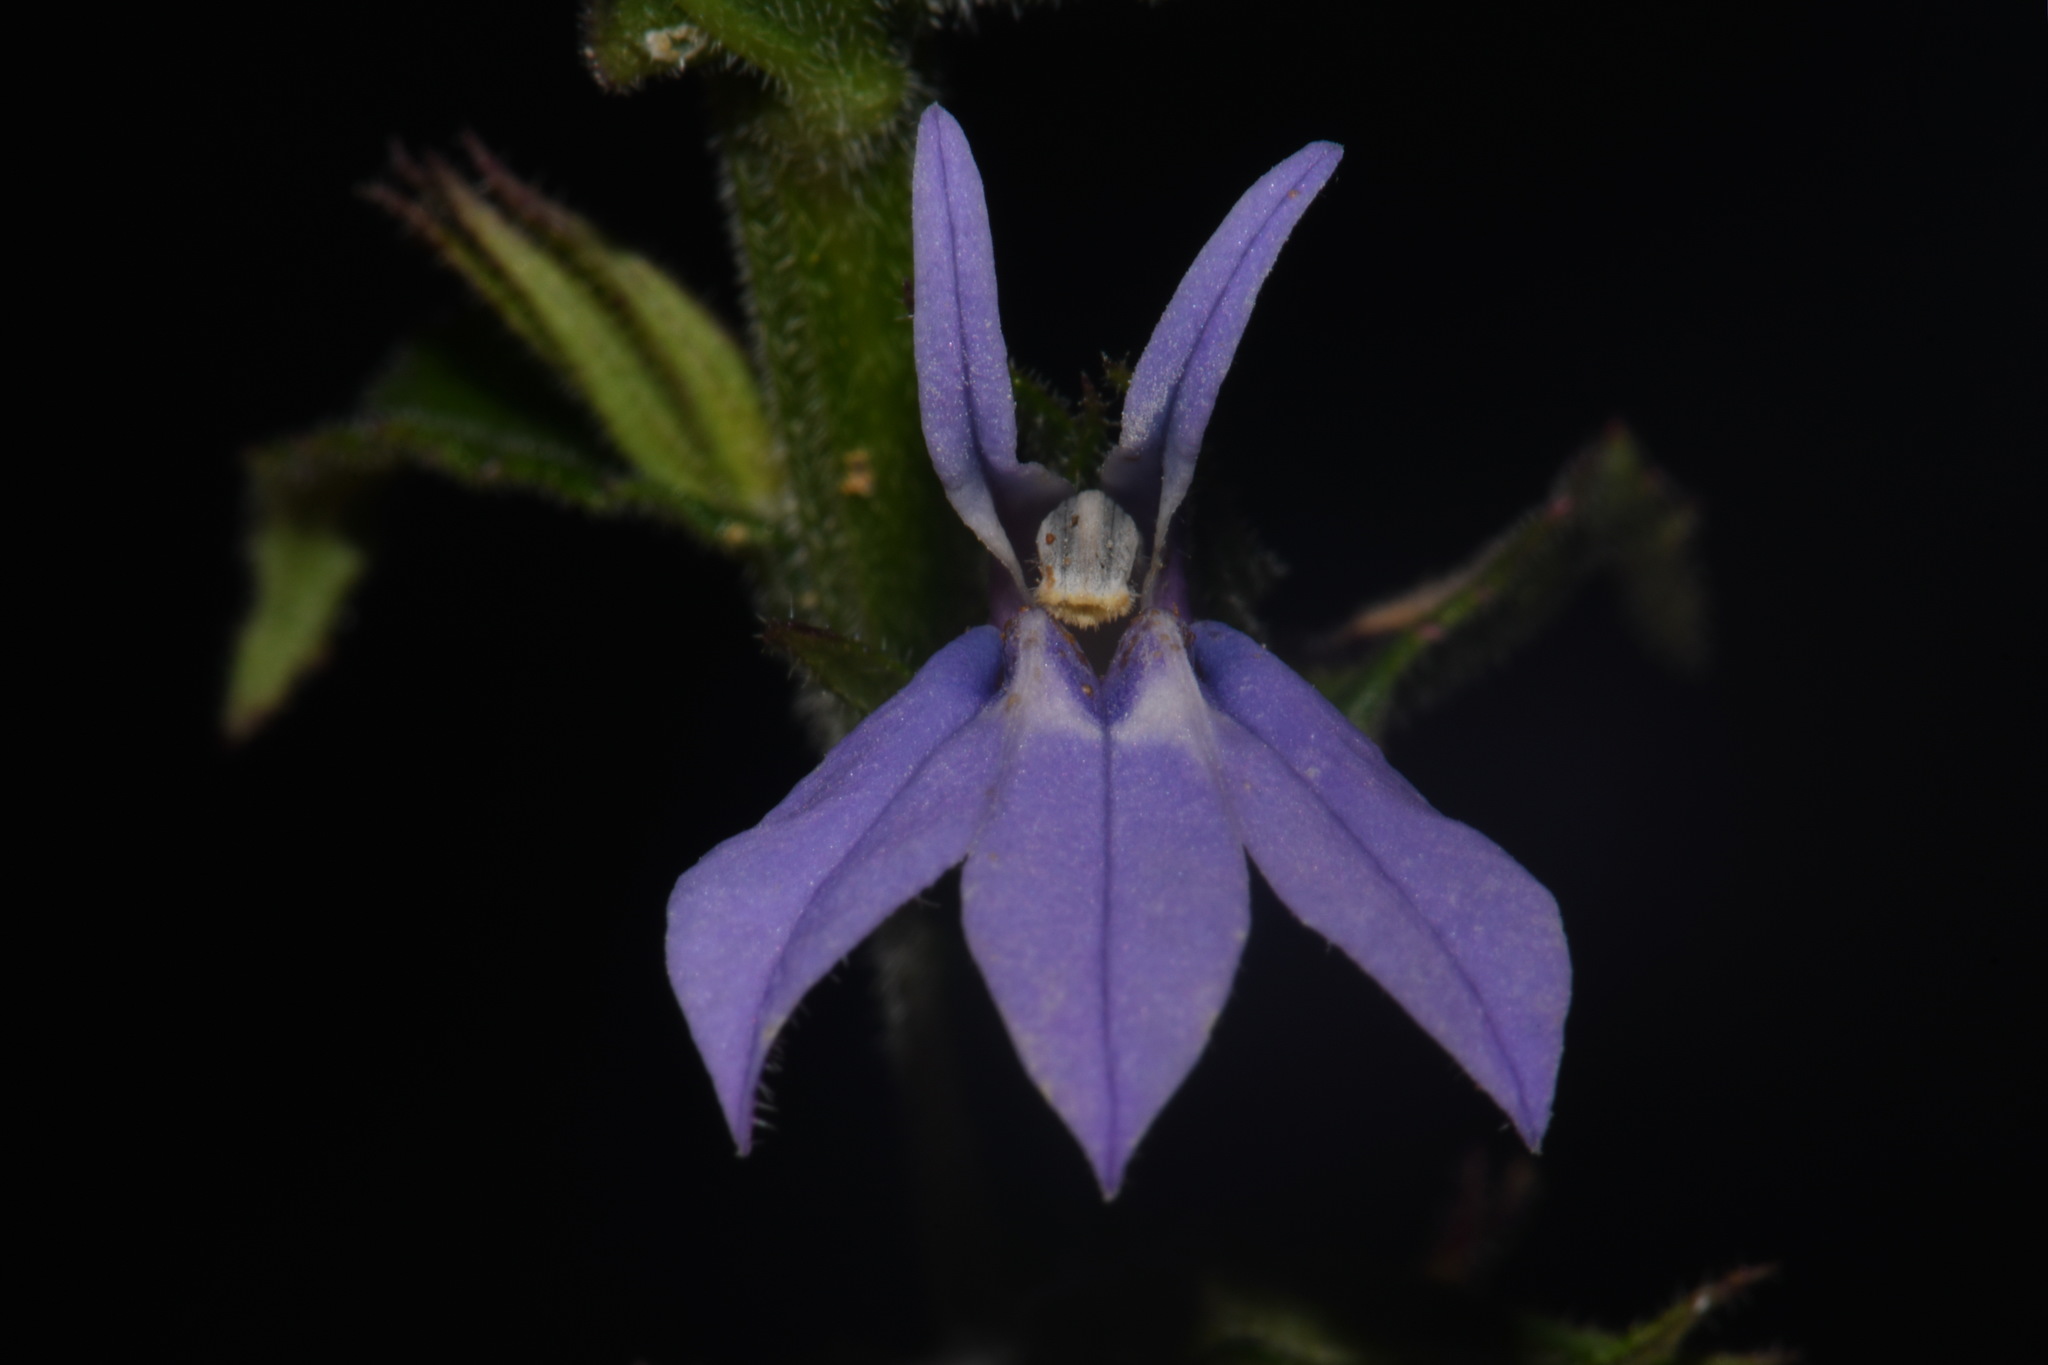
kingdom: Plantae
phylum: Tracheophyta
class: Magnoliopsida
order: Asterales
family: Campanulaceae
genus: Lobelia
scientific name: Lobelia puberula
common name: Purple dewdrop
